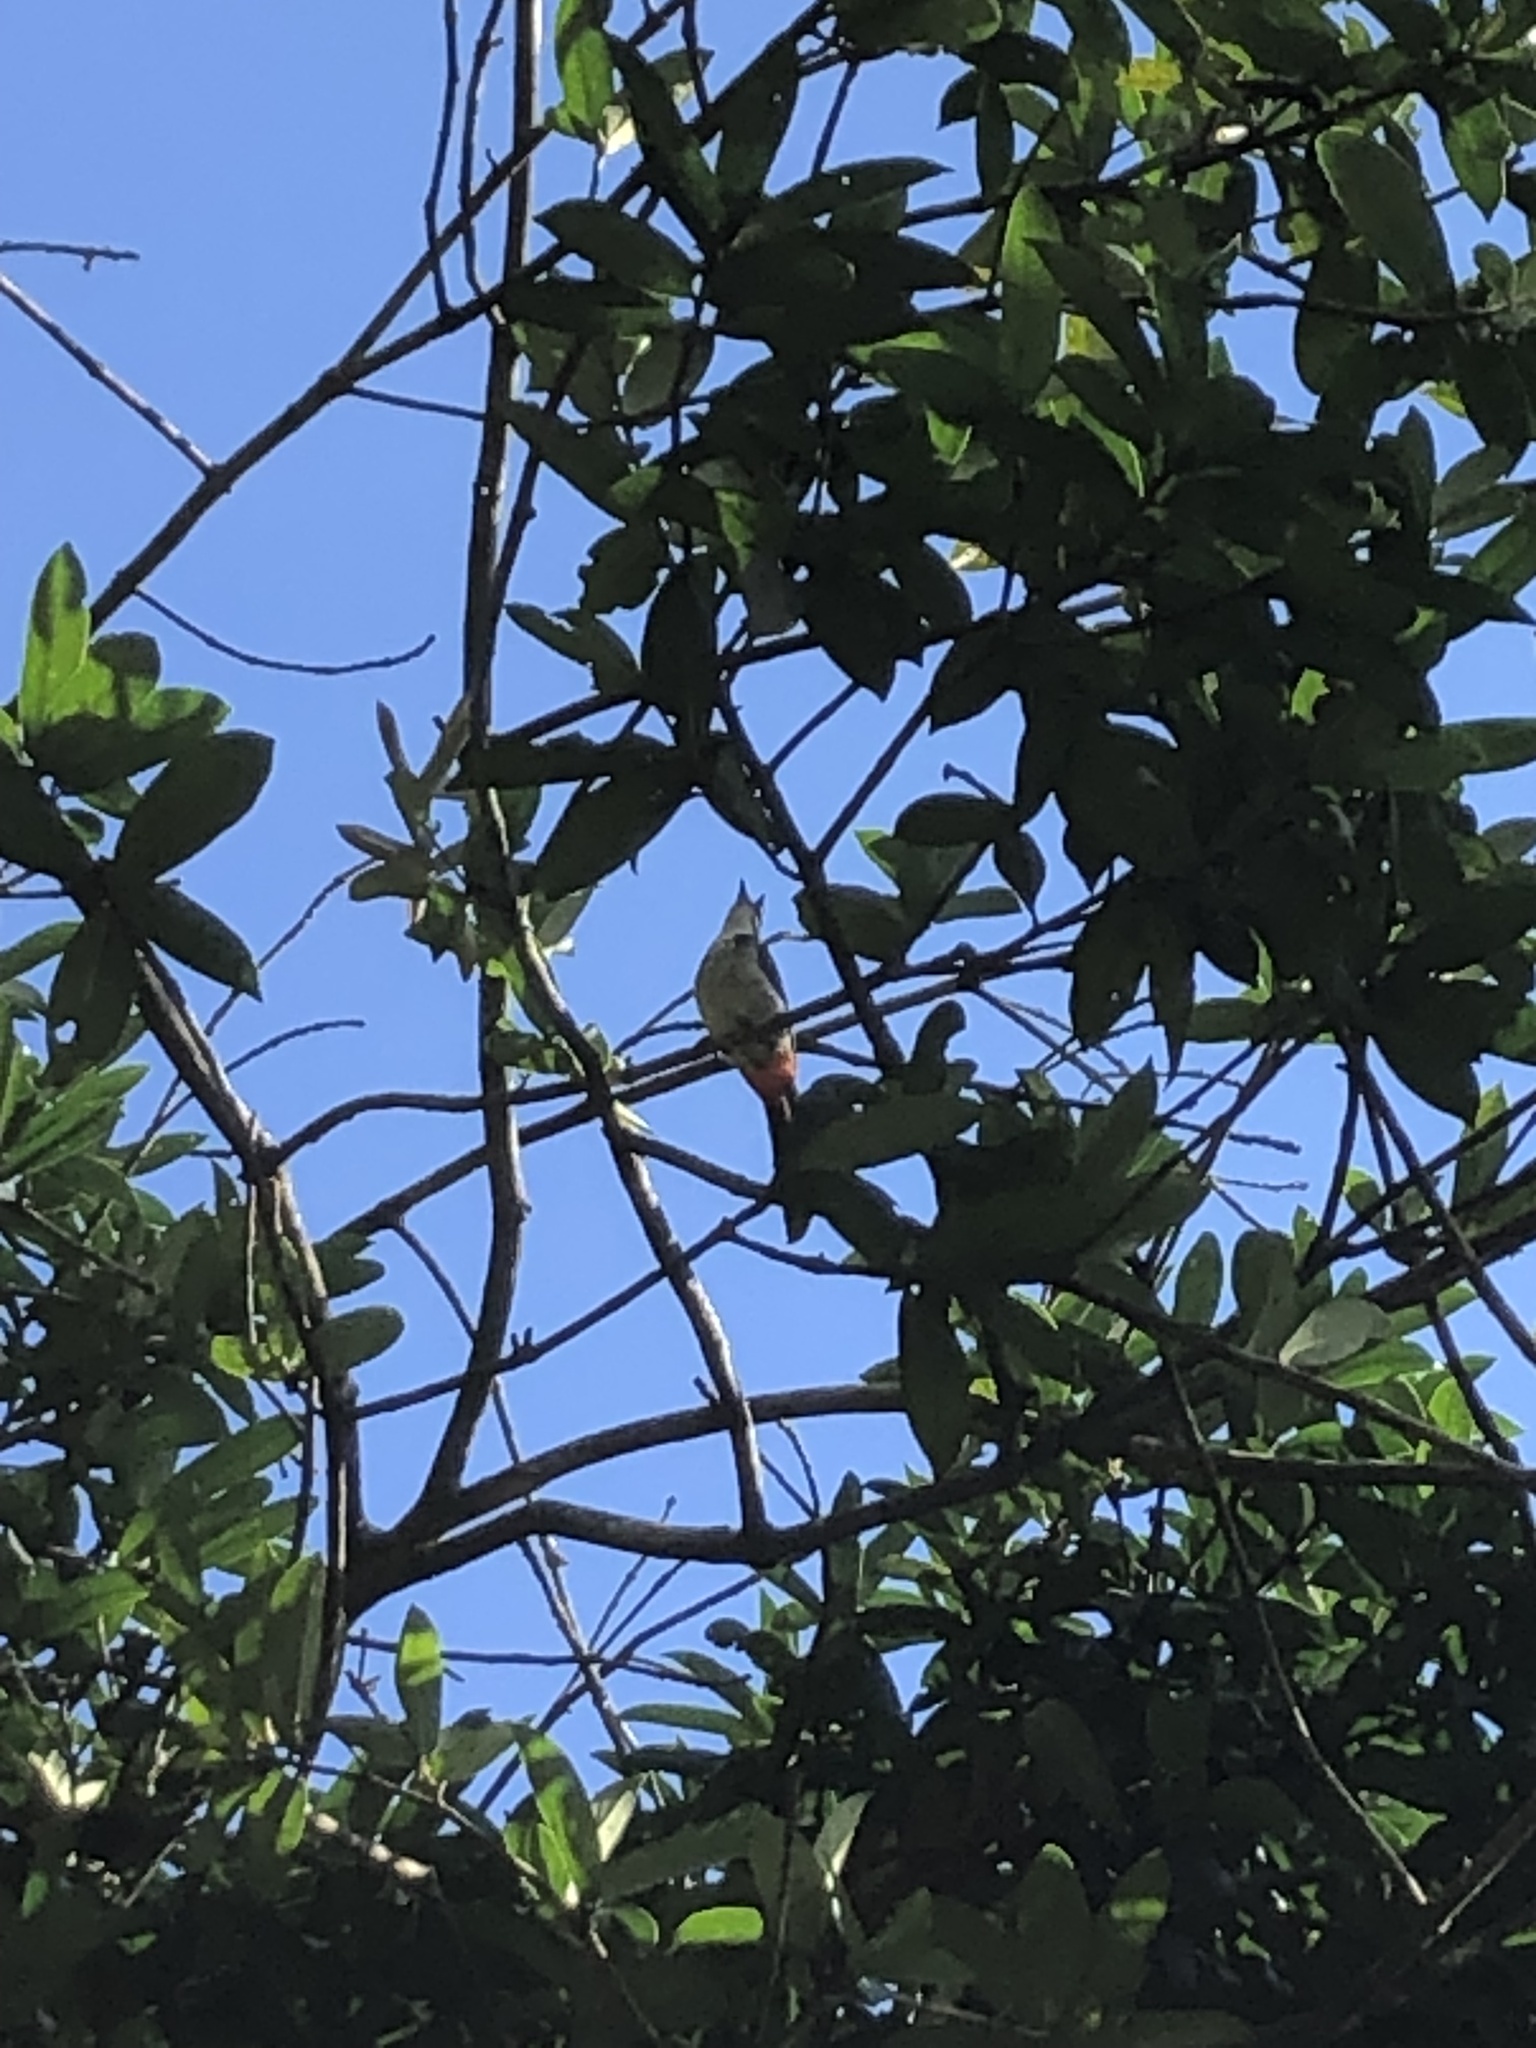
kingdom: Animalia
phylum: Chordata
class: Aves
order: Passeriformes
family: Pycnonotidae
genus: Pycnonotus
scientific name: Pycnonotus jocosus
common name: Red-whiskered bulbul
